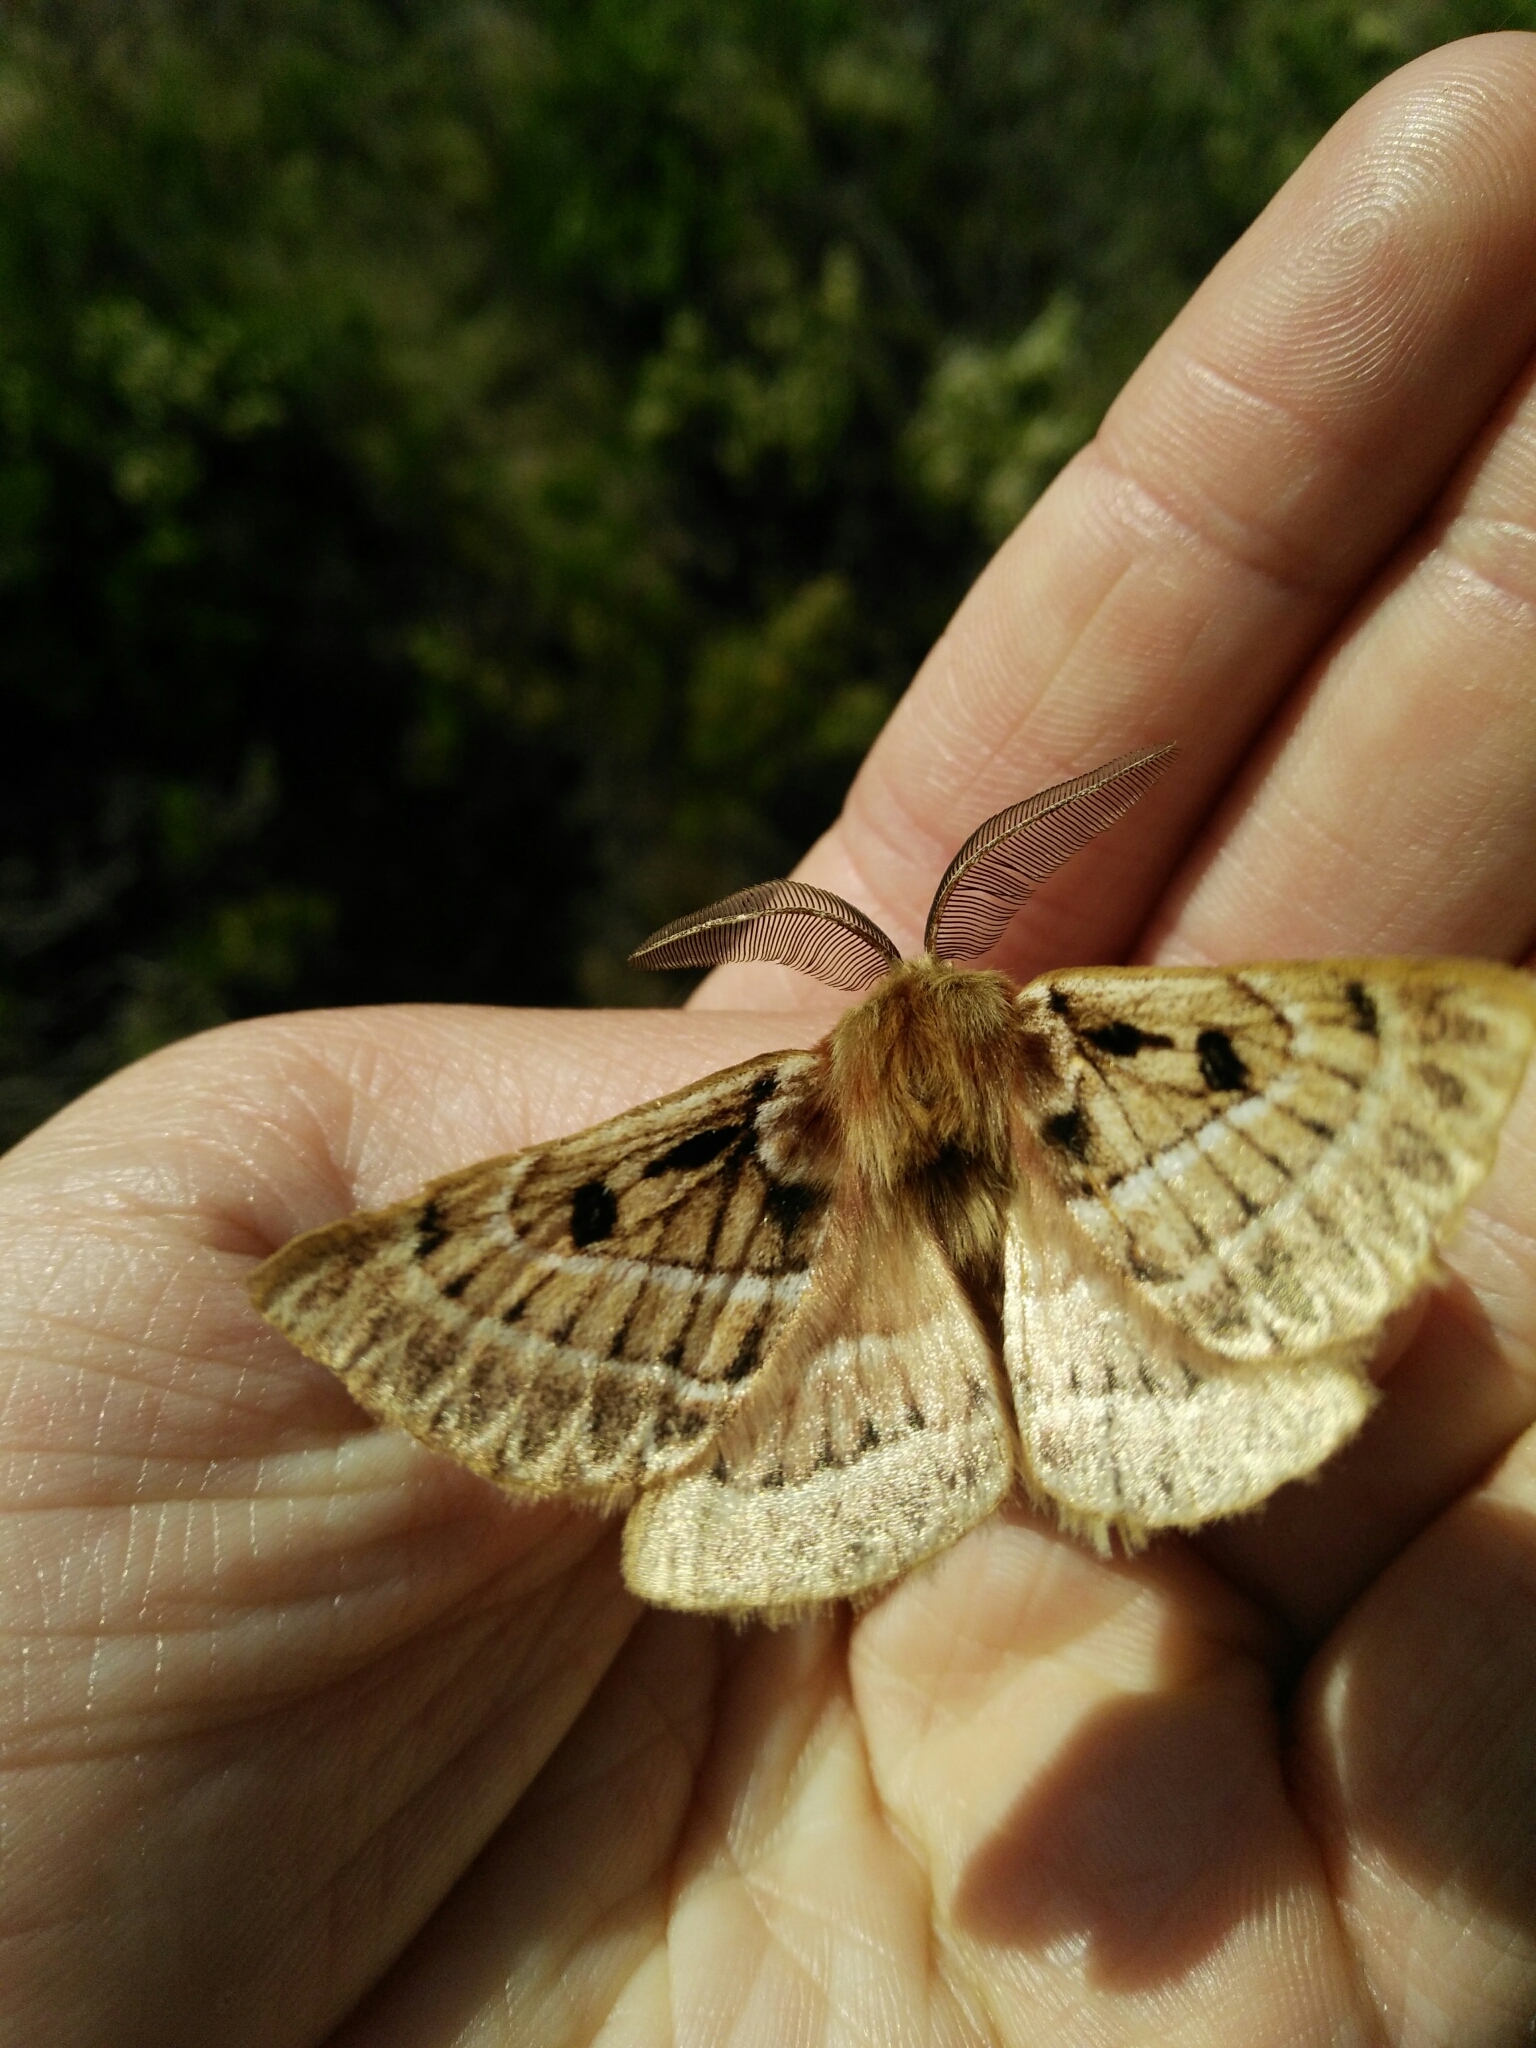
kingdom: Animalia
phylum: Arthropoda
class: Insecta
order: Lepidoptera
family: Anthelidae
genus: Anthela
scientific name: Anthela oressarcha
